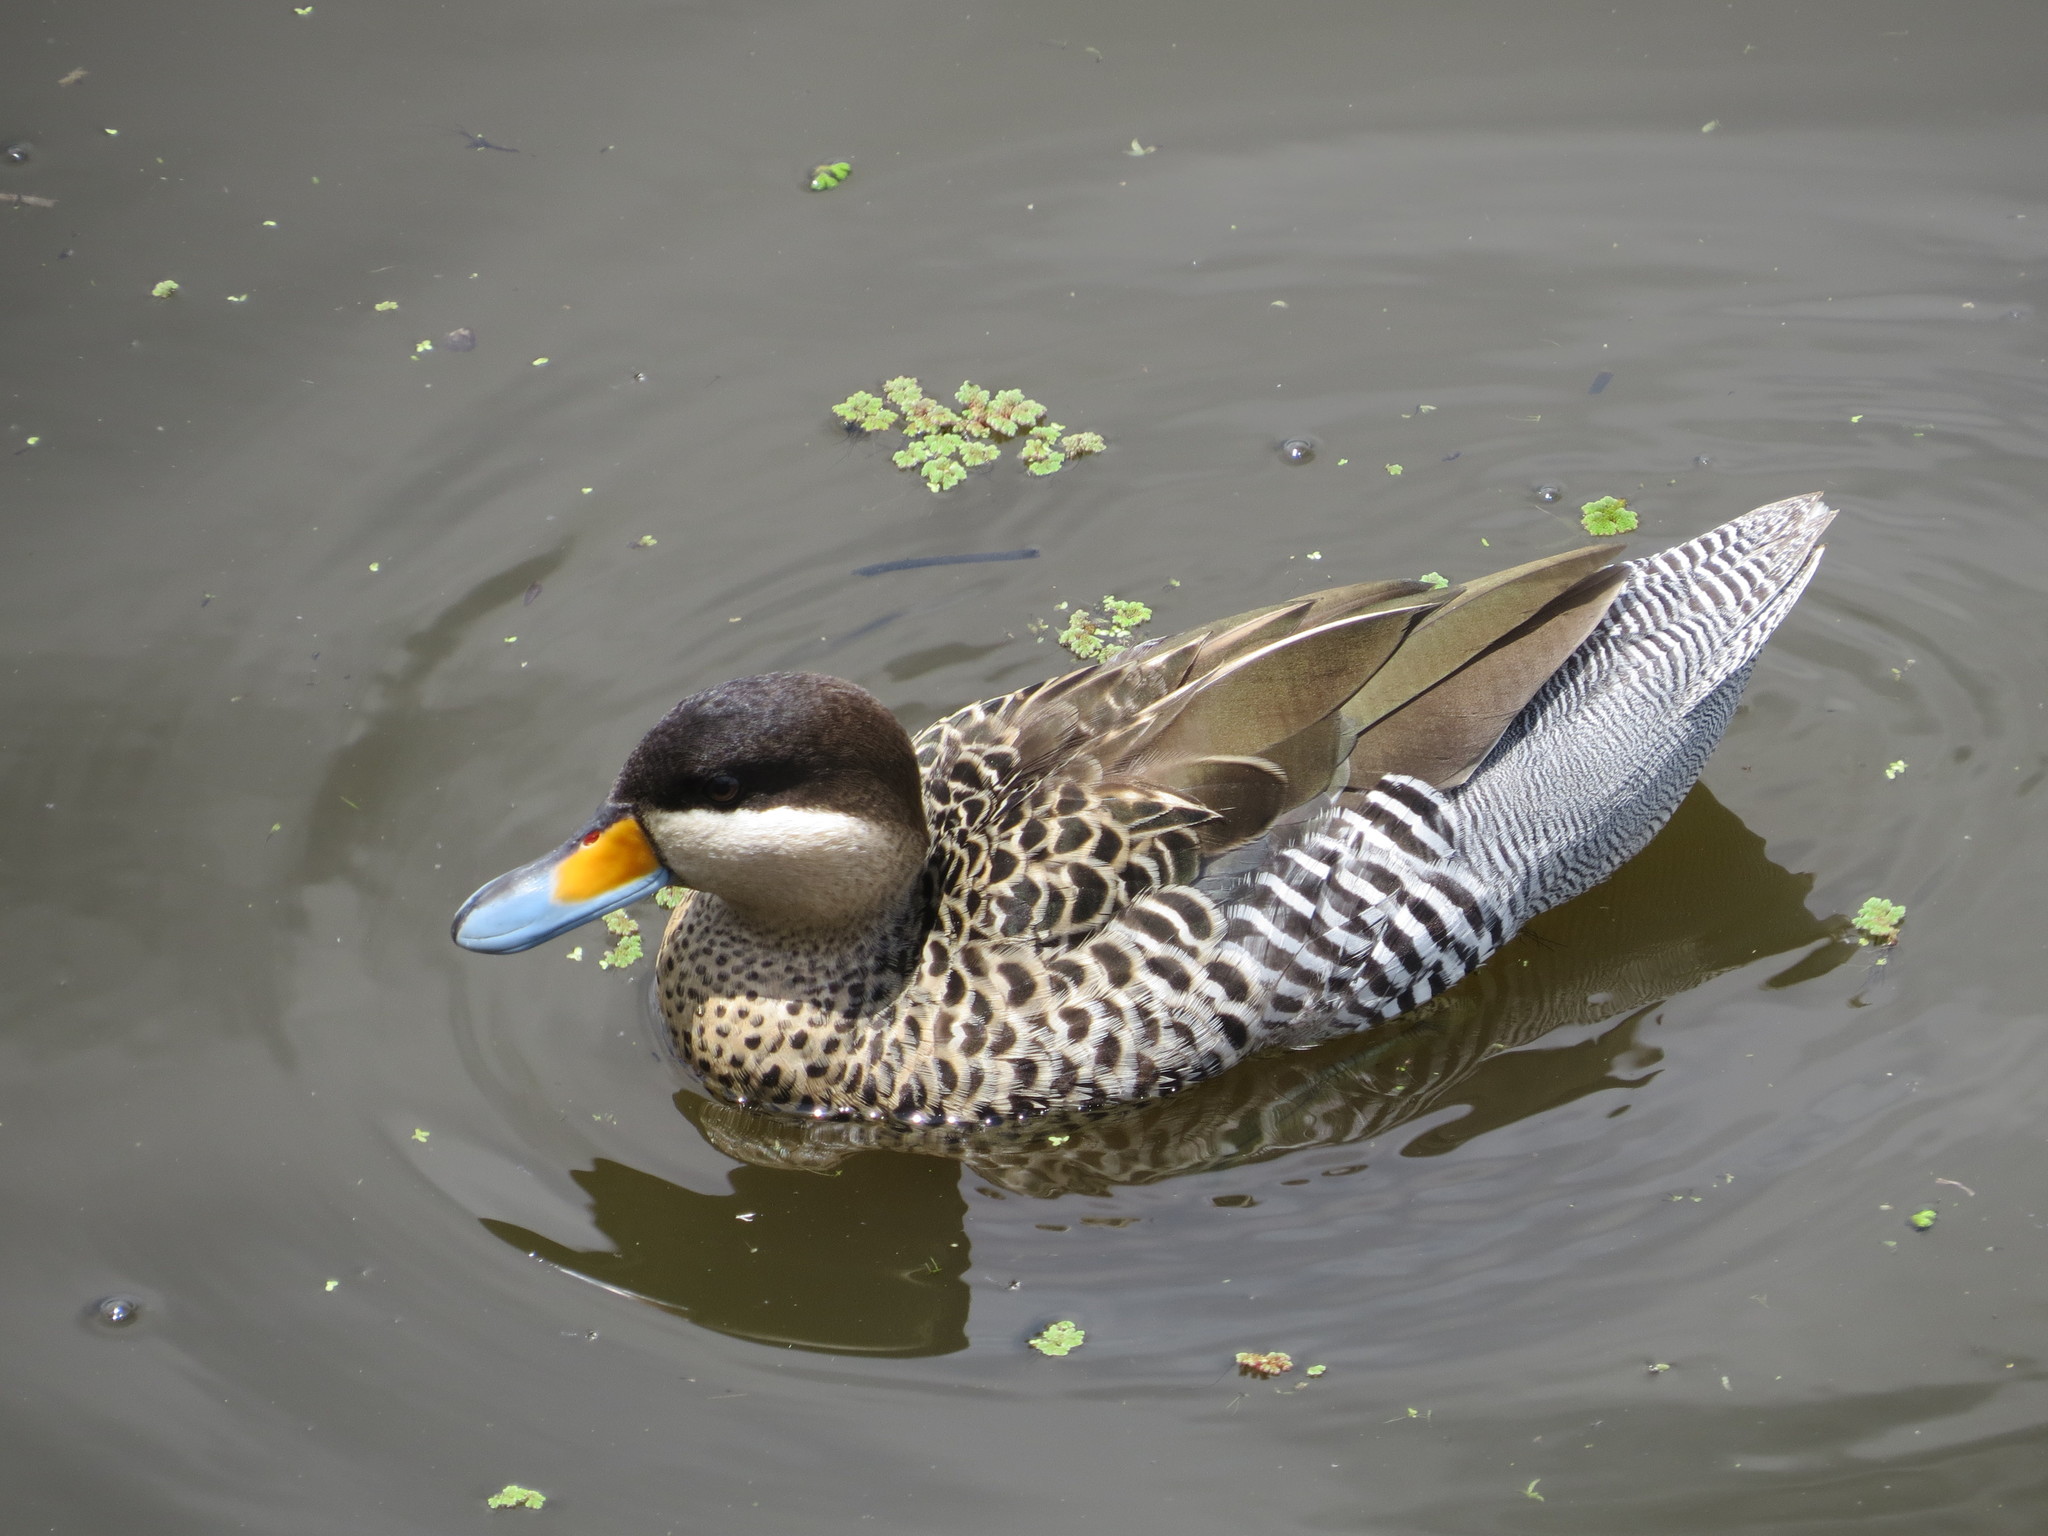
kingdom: Animalia
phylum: Chordata
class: Aves
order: Anseriformes
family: Anatidae
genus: Spatula
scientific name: Spatula versicolor
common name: Silver teal
